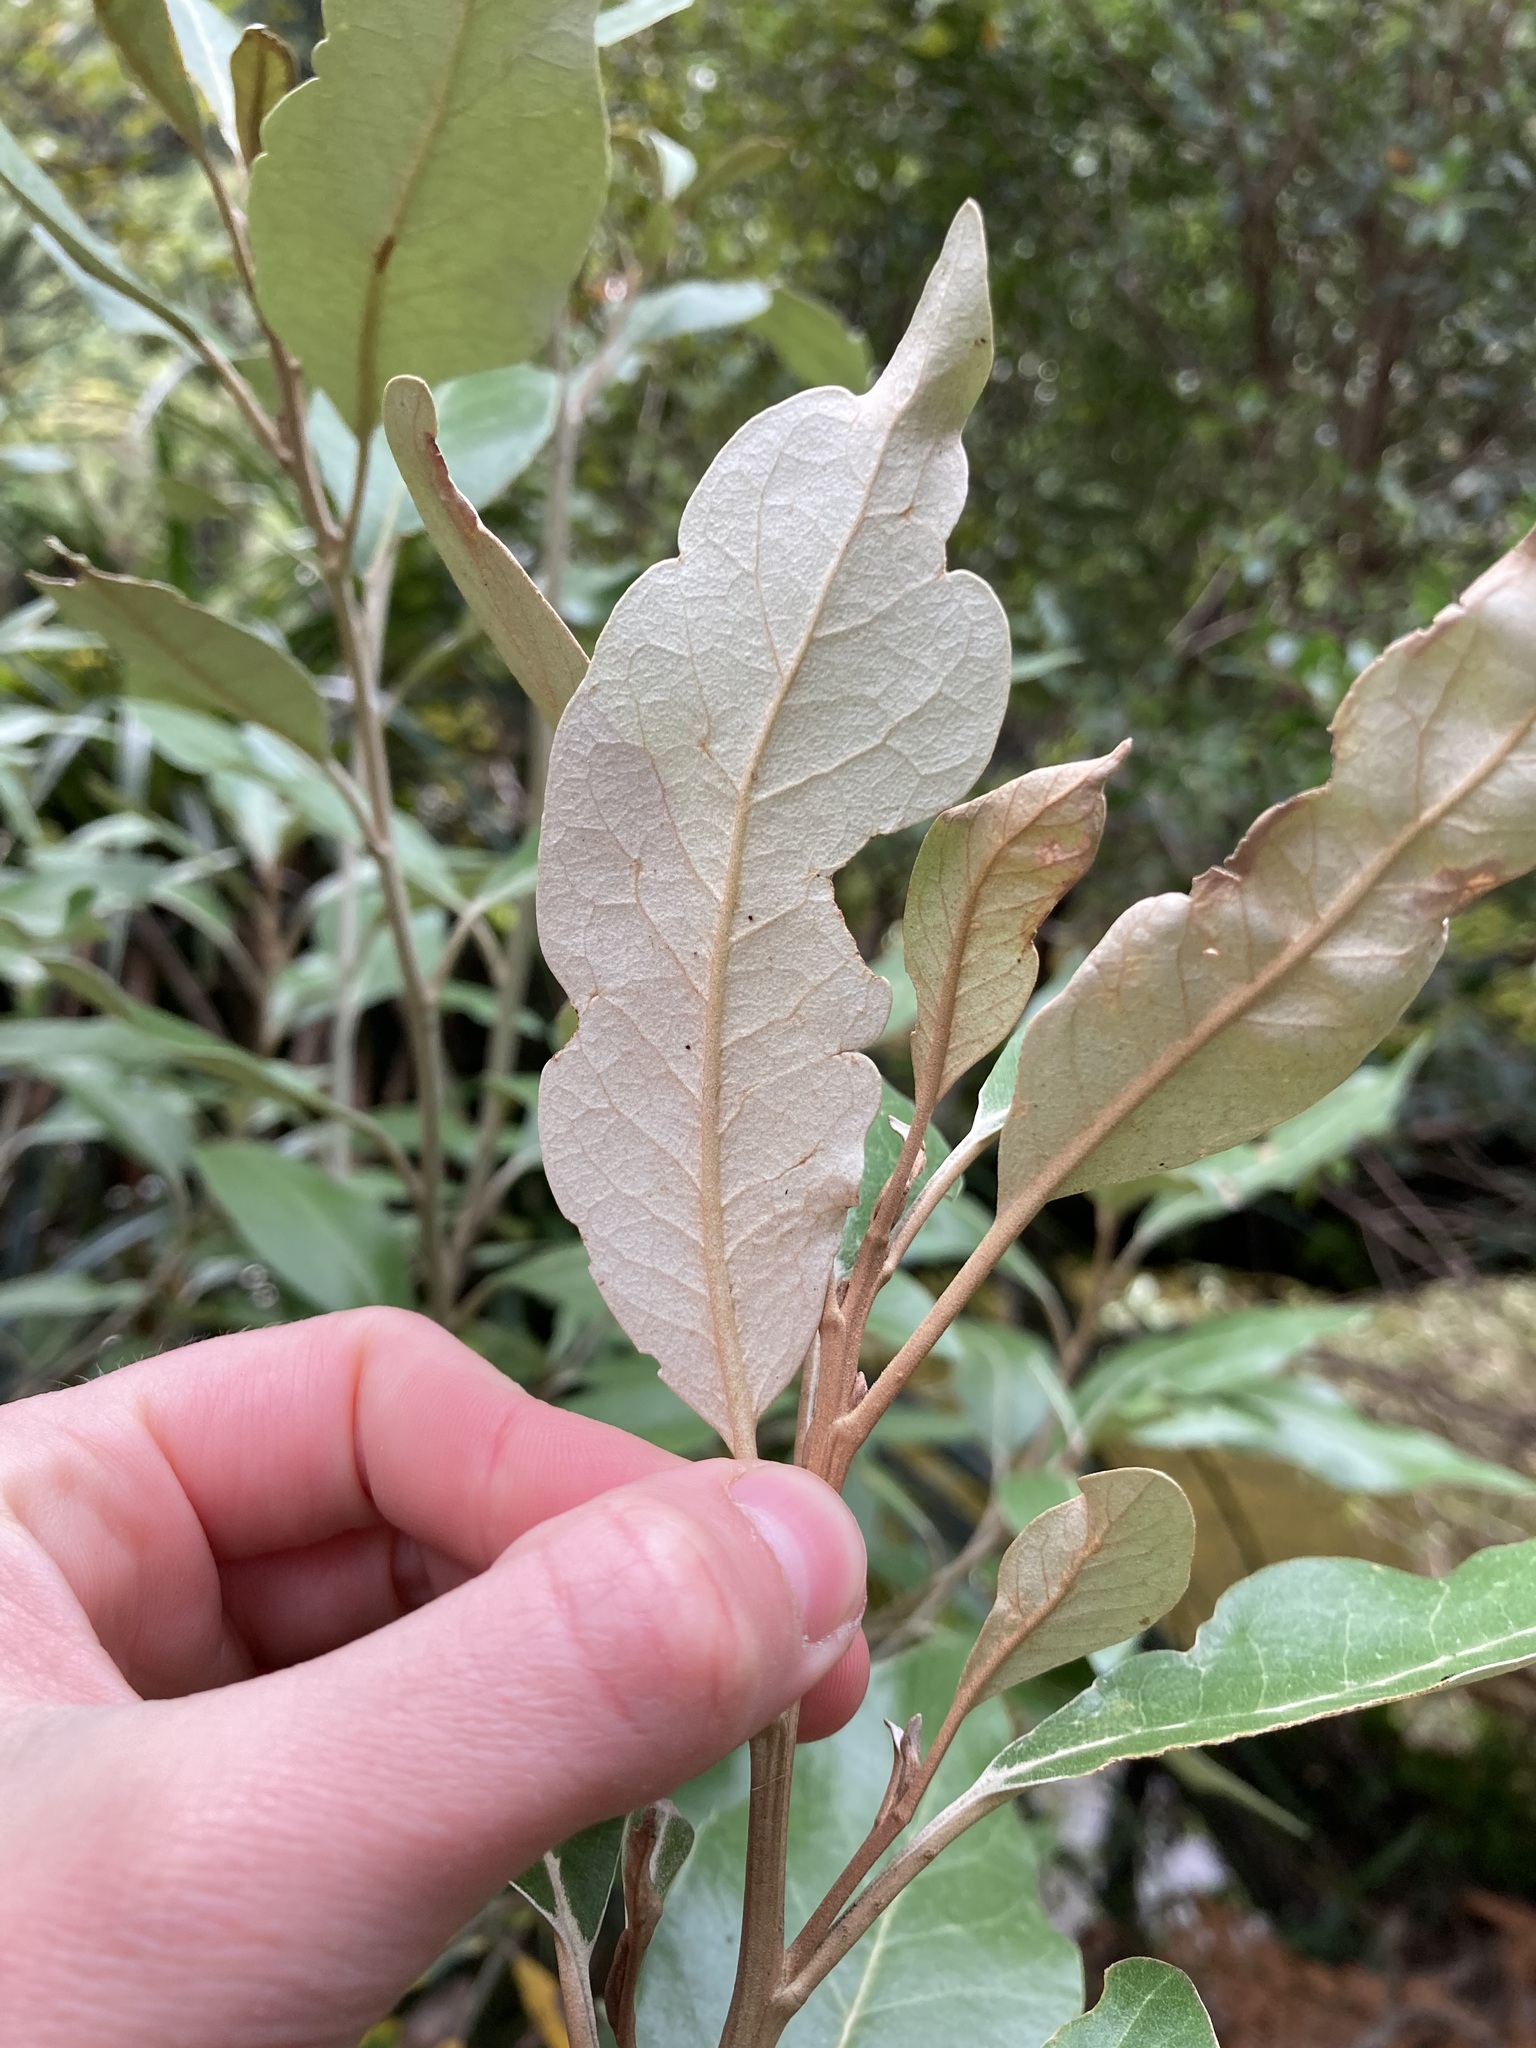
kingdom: Plantae
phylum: Tracheophyta
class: Magnoliopsida
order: Asterales
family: Asteraceae
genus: Olearia
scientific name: Olearia avicenniifolia
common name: Mangrove-leaf daisybush
